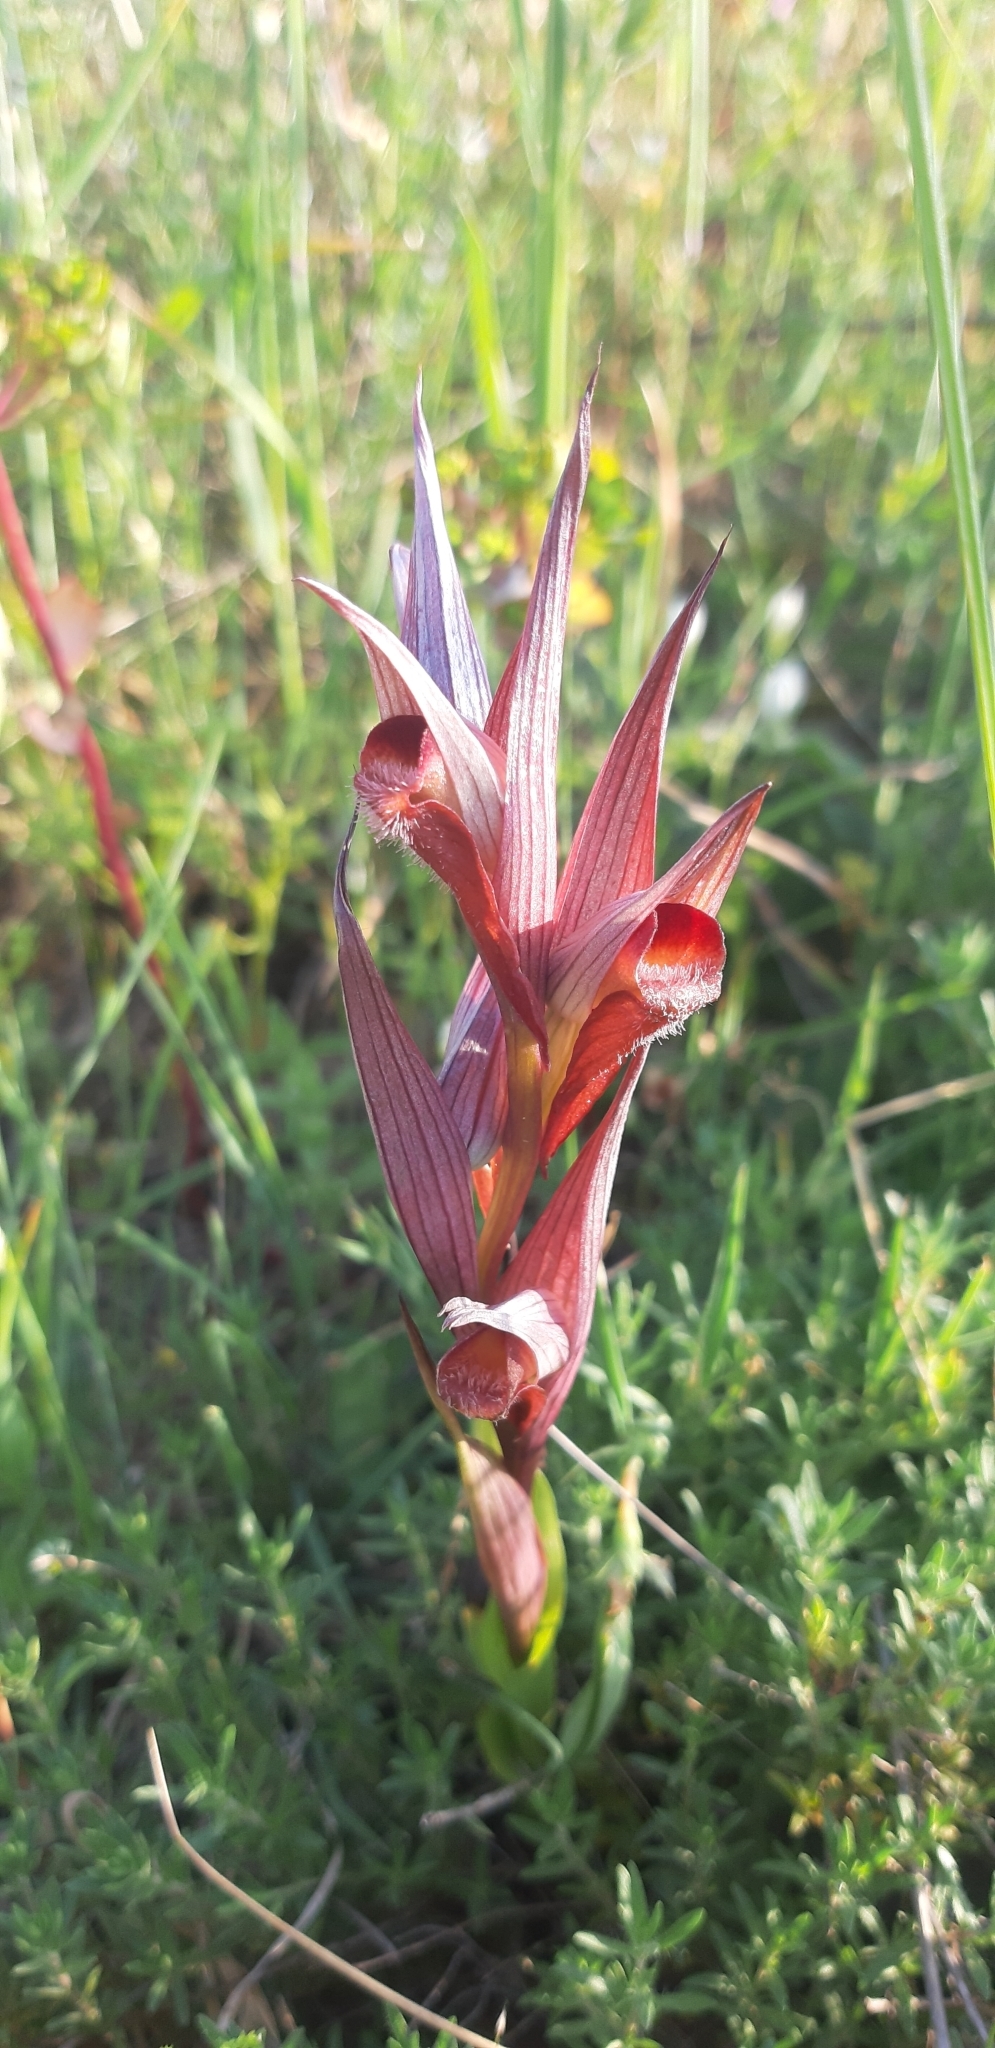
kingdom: Plantae
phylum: Tracheophyta
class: Liliopsida
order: Asparagales
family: Orchidaceae
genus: Serapias
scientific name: Serapias vomeracea
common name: Long-lipped tongue-orchid
